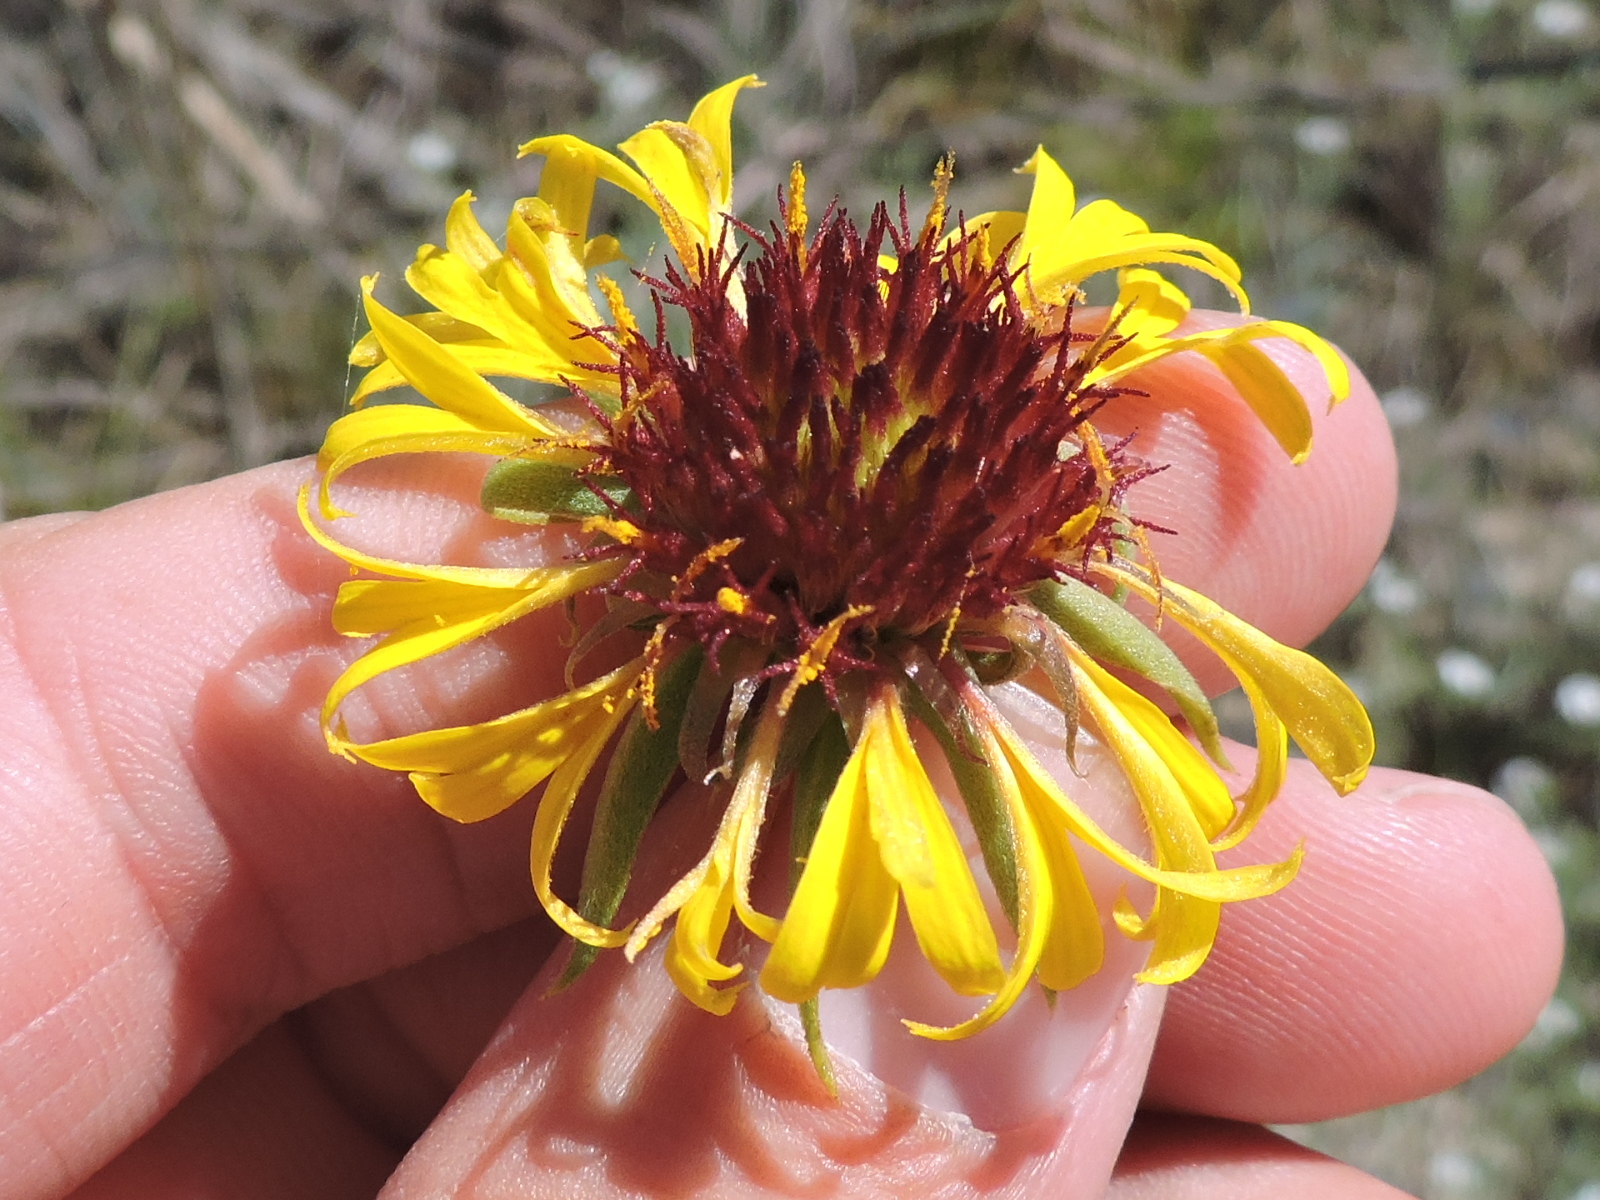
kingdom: Plantae
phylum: Tracheophyta
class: Magnoliopsida
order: Asterales
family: Asteraceae
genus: Gaillardia
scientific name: Gaillardia aestivalis
